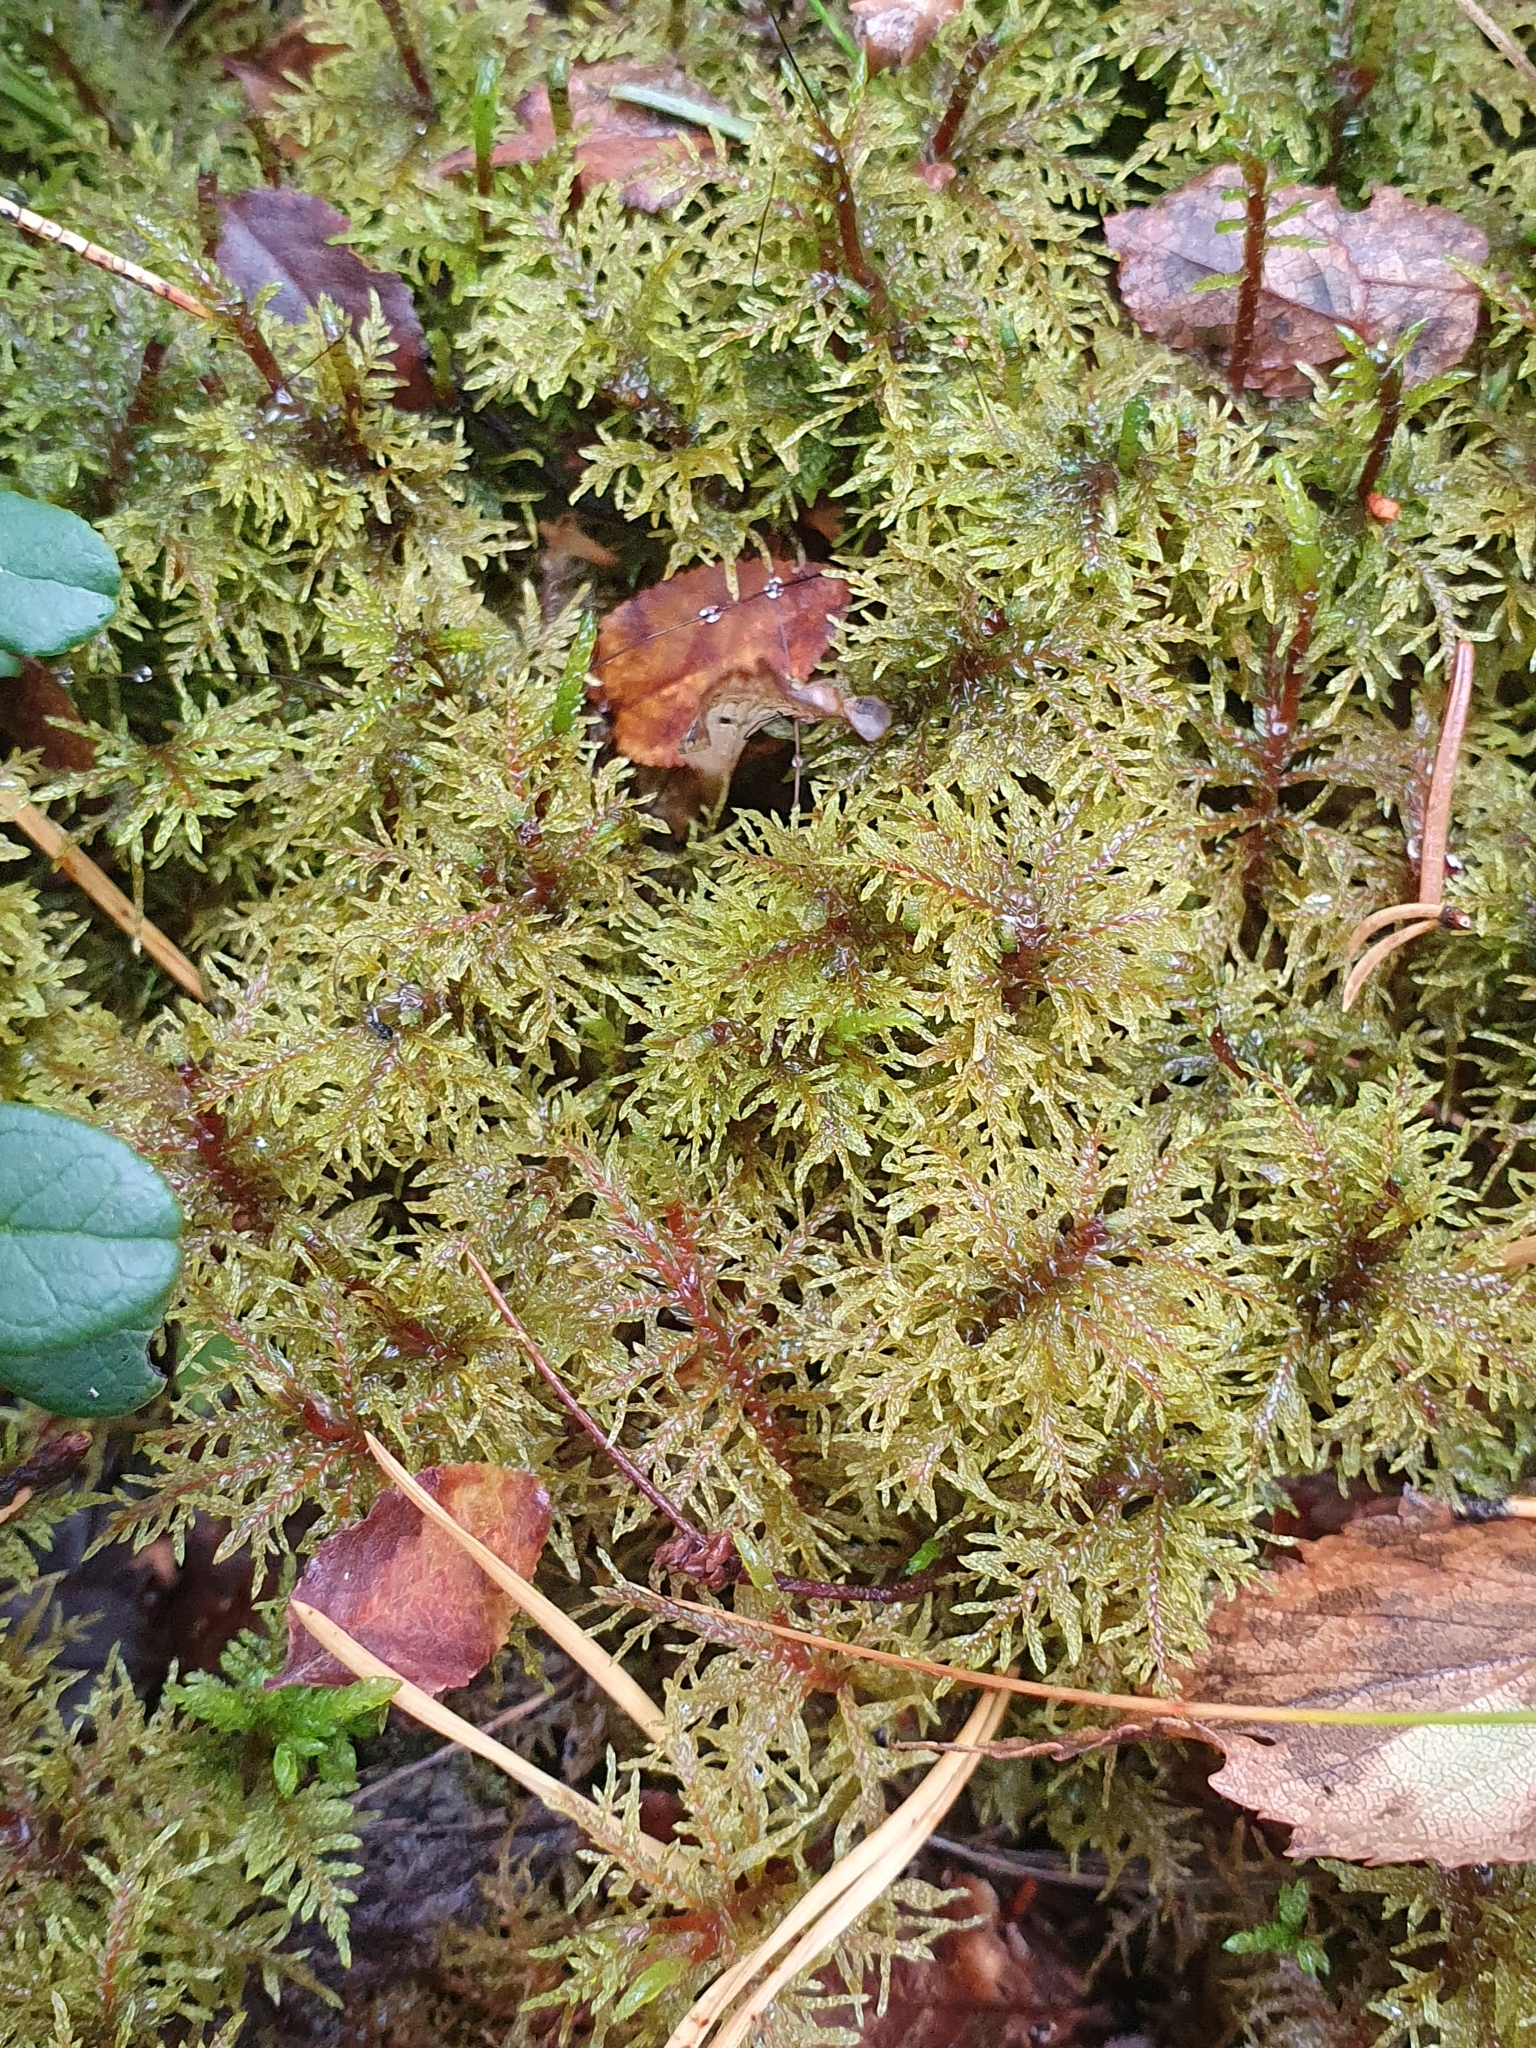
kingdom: Plantae
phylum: Bryophyta
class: Bryopsida
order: Hypnales
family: Hylocomiaceae
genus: Hylocomium
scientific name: Hylocomium splendens
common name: Stairstep moss
